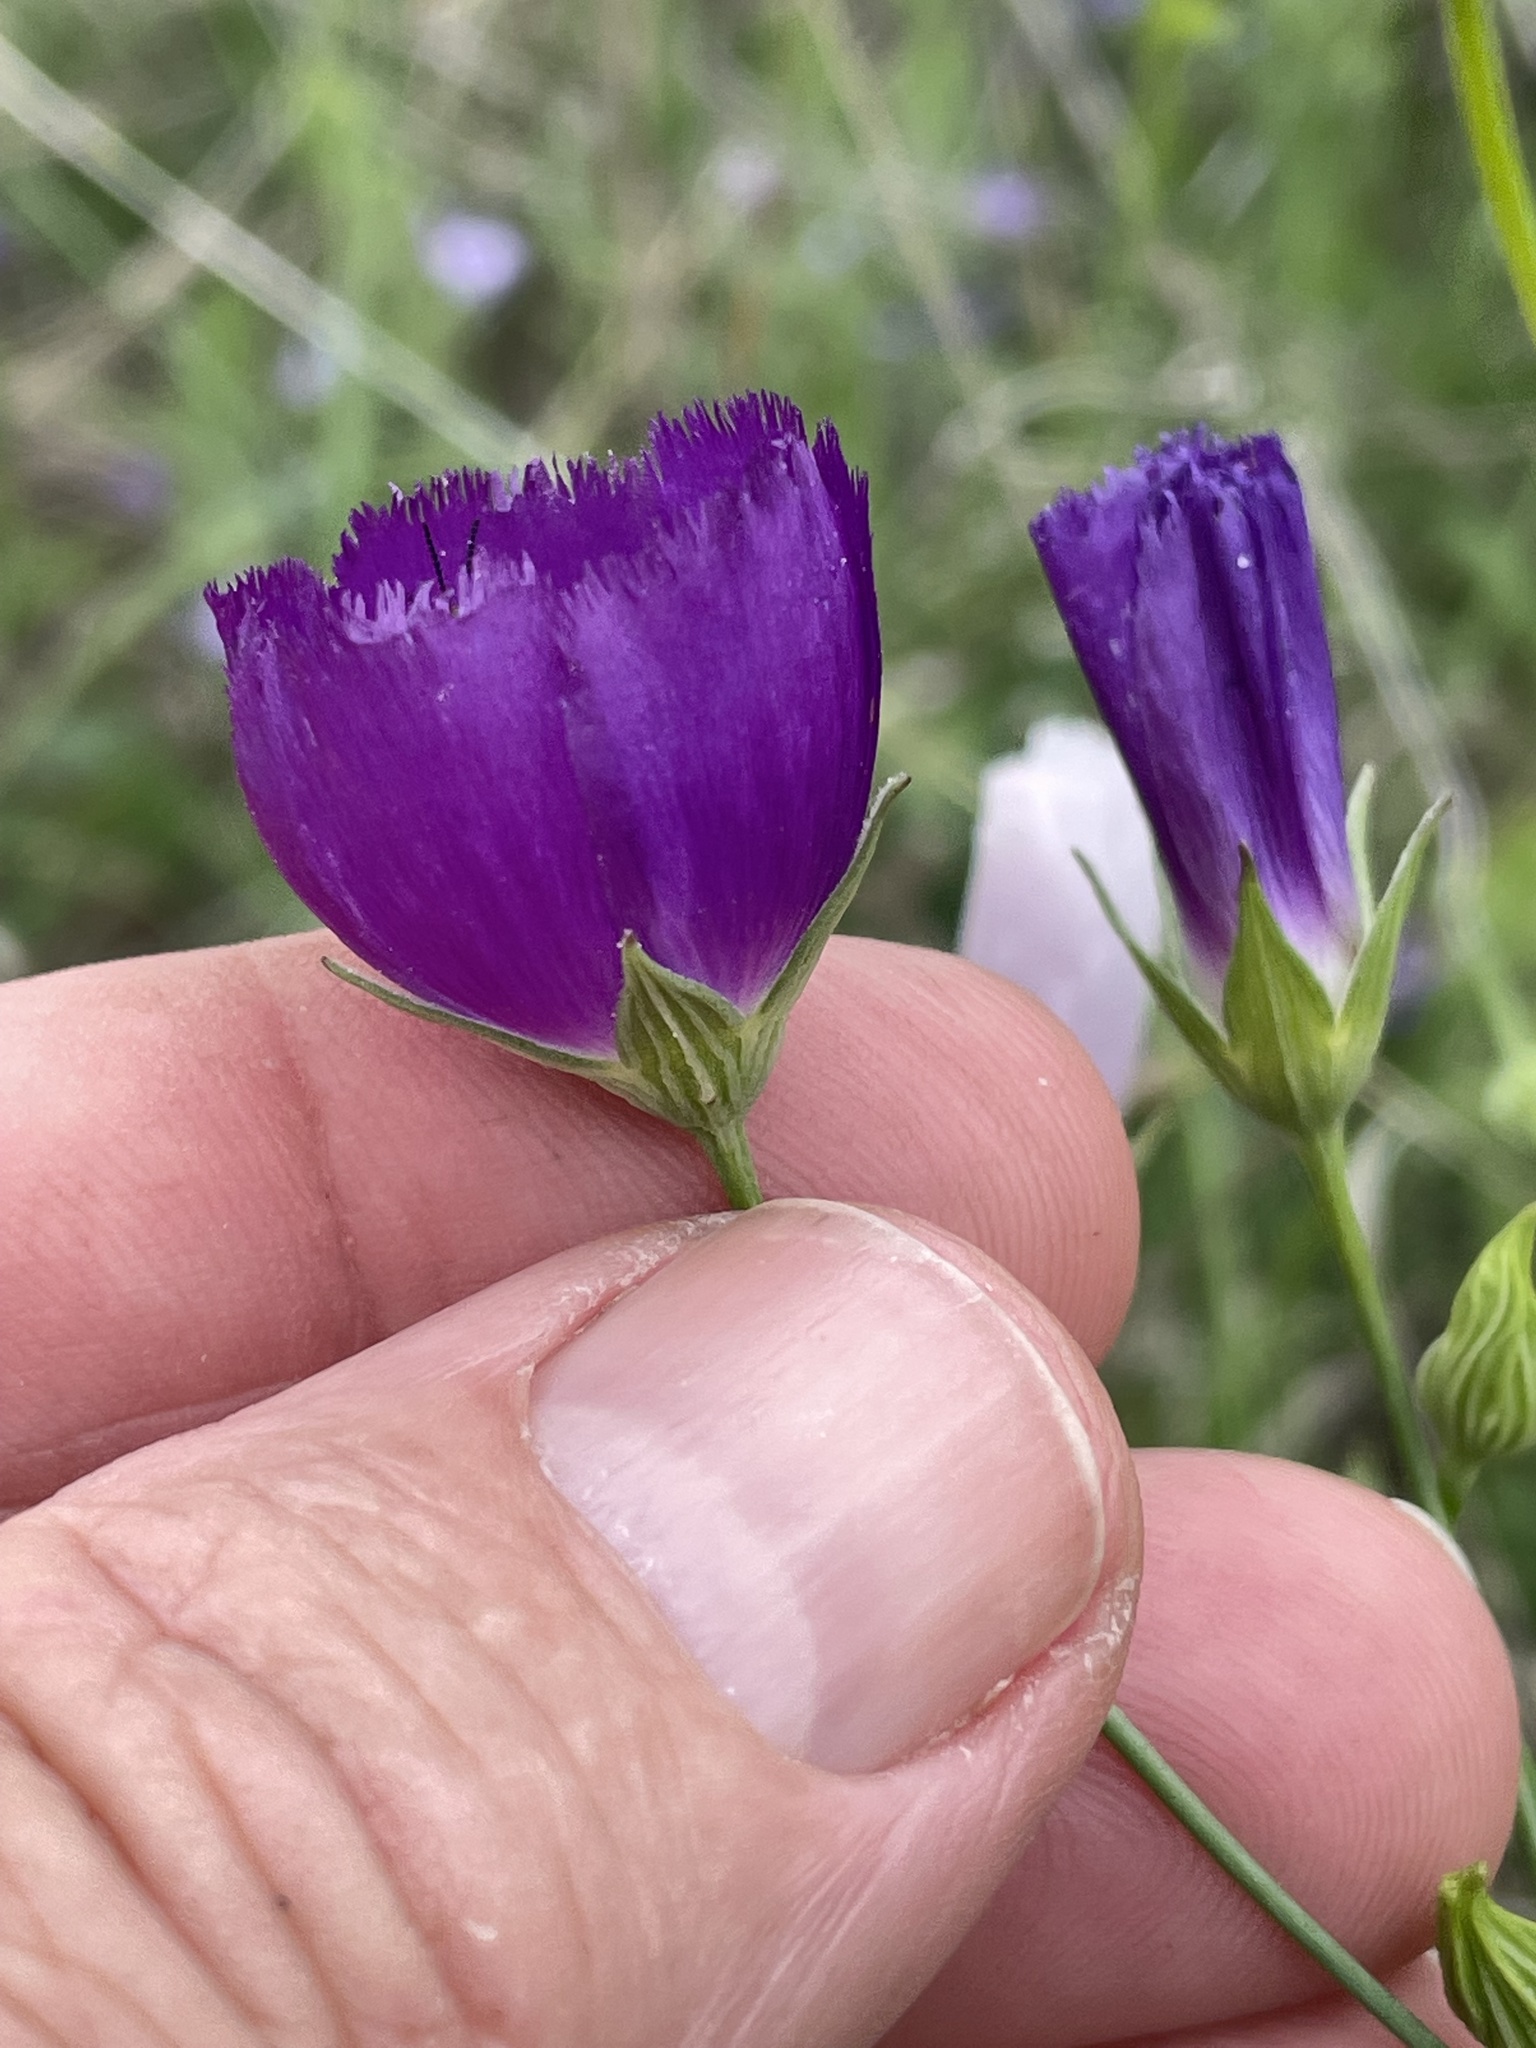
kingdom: Plantae
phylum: Tracheophyta
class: Magnoliopsida
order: Malvales
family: Malvaceae
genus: Callirhoe
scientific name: Callirhoe pedata
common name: Finger poppy-mallow
